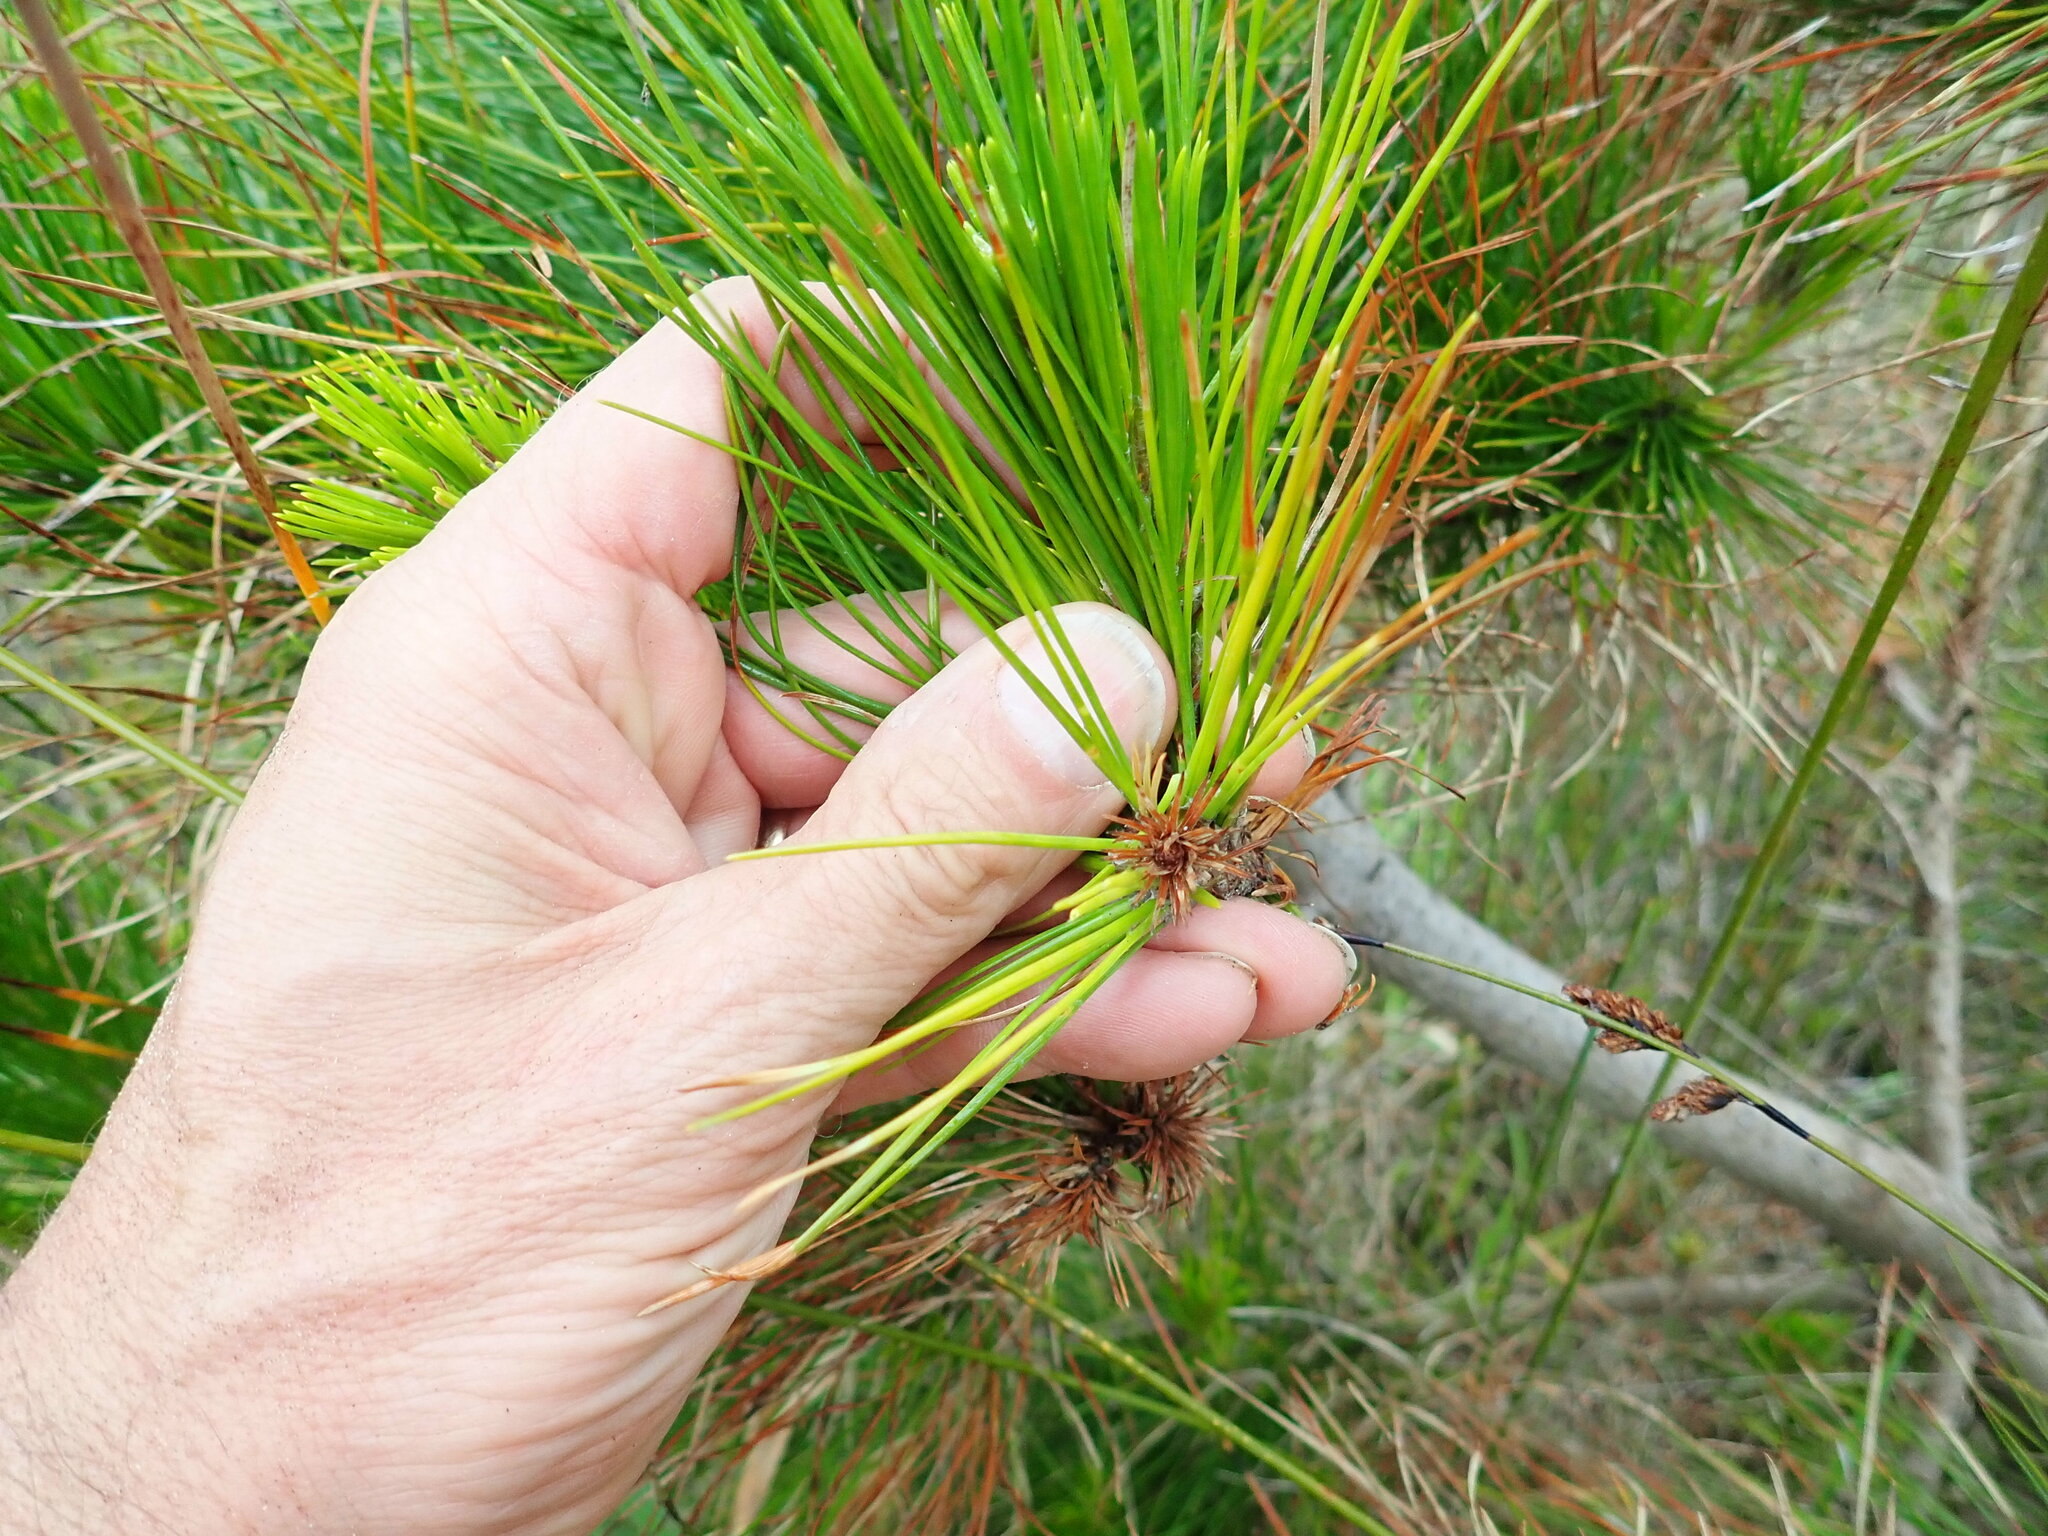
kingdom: Plantae
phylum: Tracheophyta
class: Pinopsida
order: Pinales
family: Pinaceae
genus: Pinus
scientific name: Pinus radiata
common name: Monterey pine
